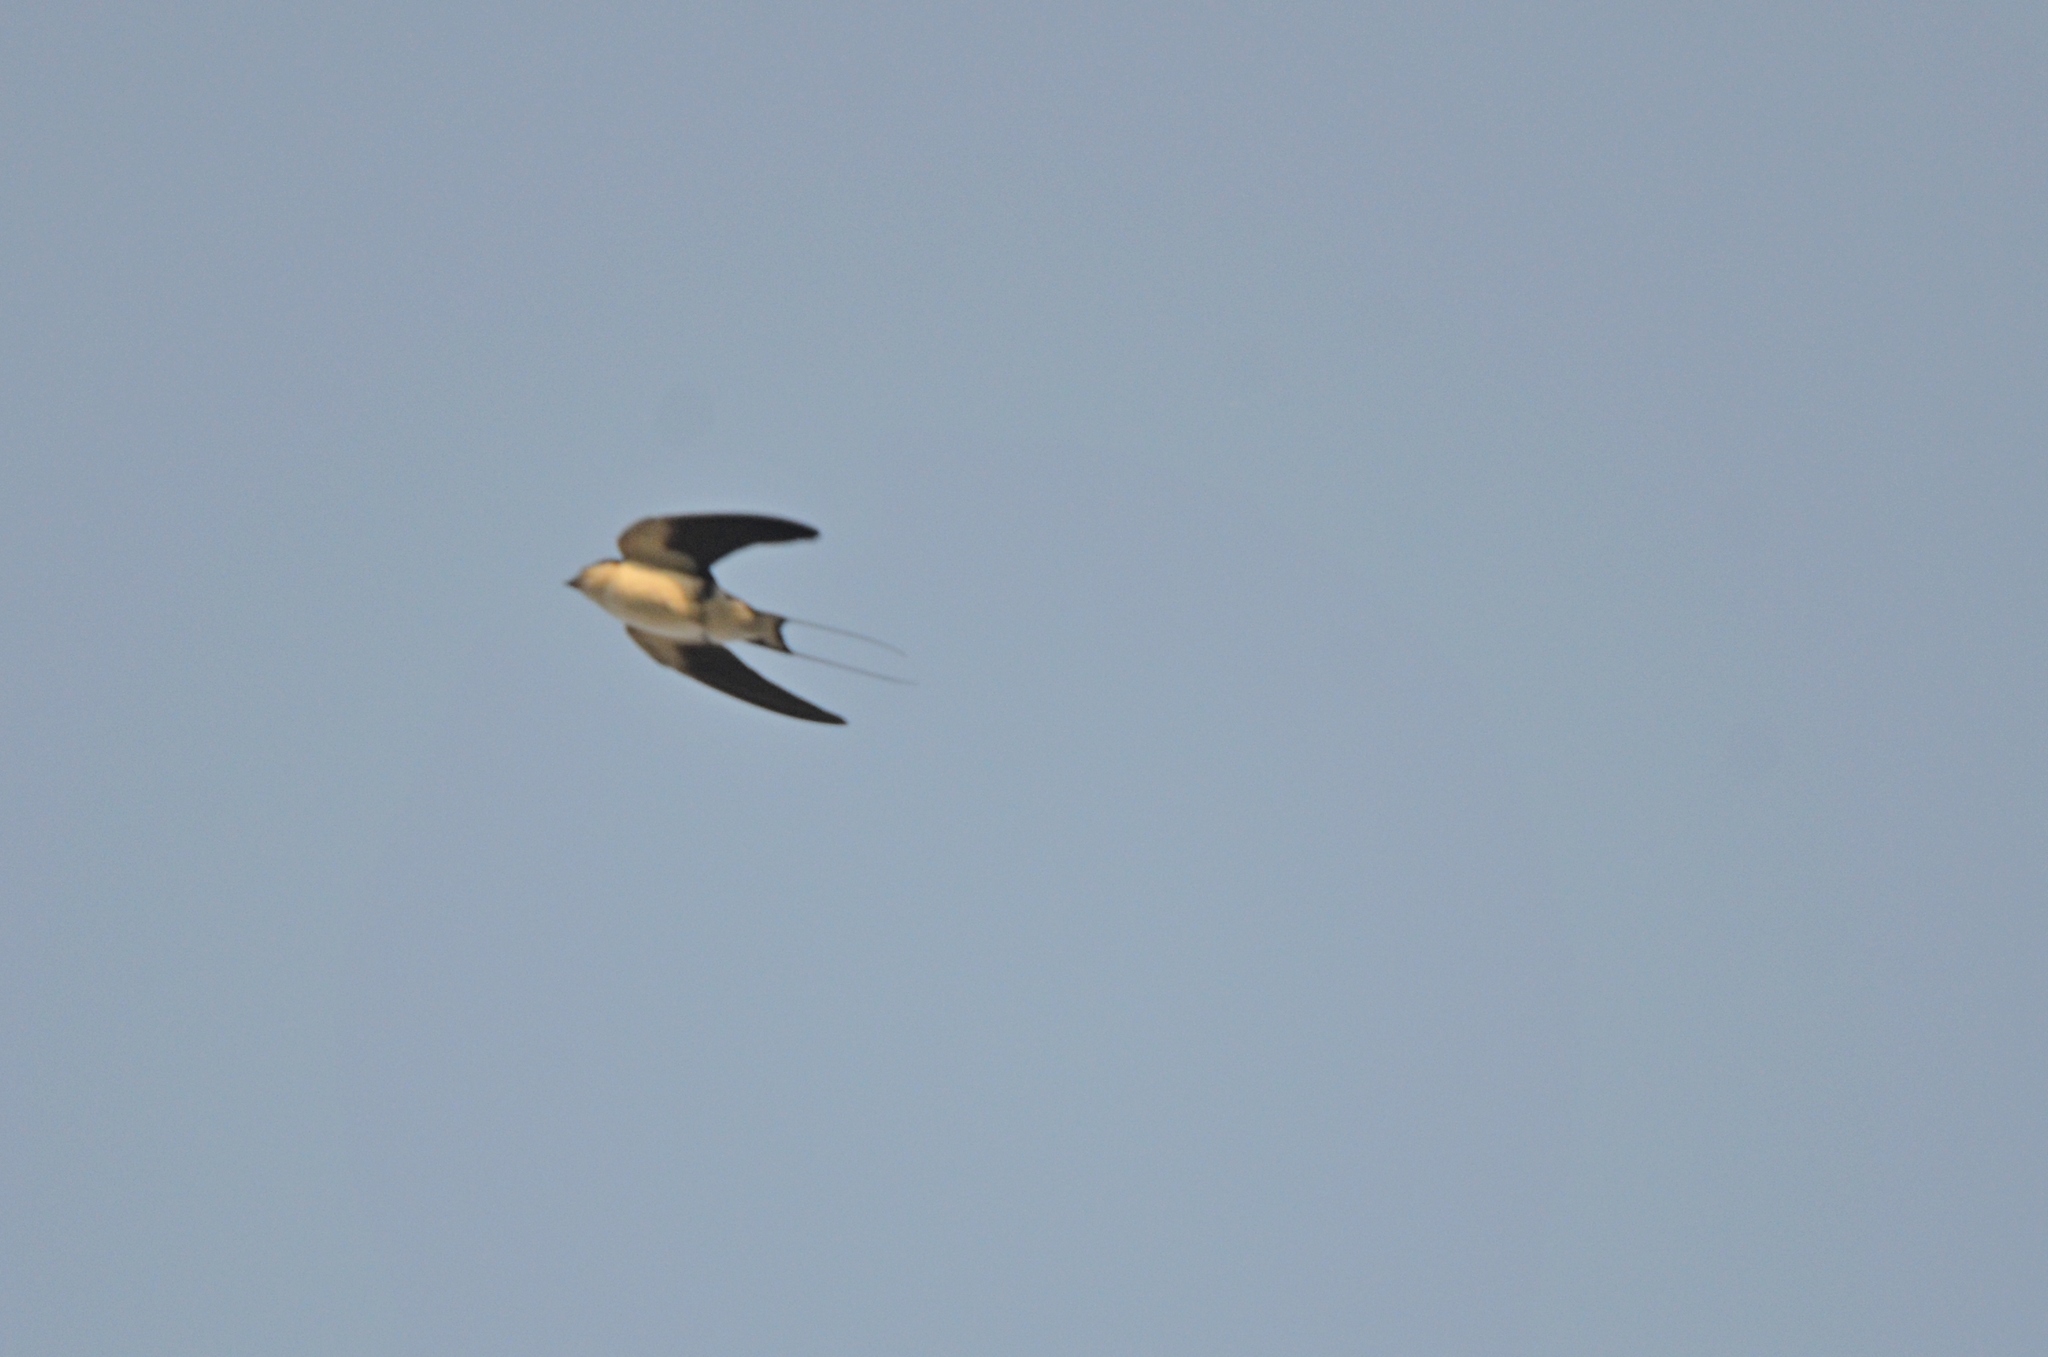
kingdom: Animalia
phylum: Chordata
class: Aves
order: Passeriformes
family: Hirundinidae
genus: Hirundo
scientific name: Hirundo smithii
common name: Wire-tailed swallow
